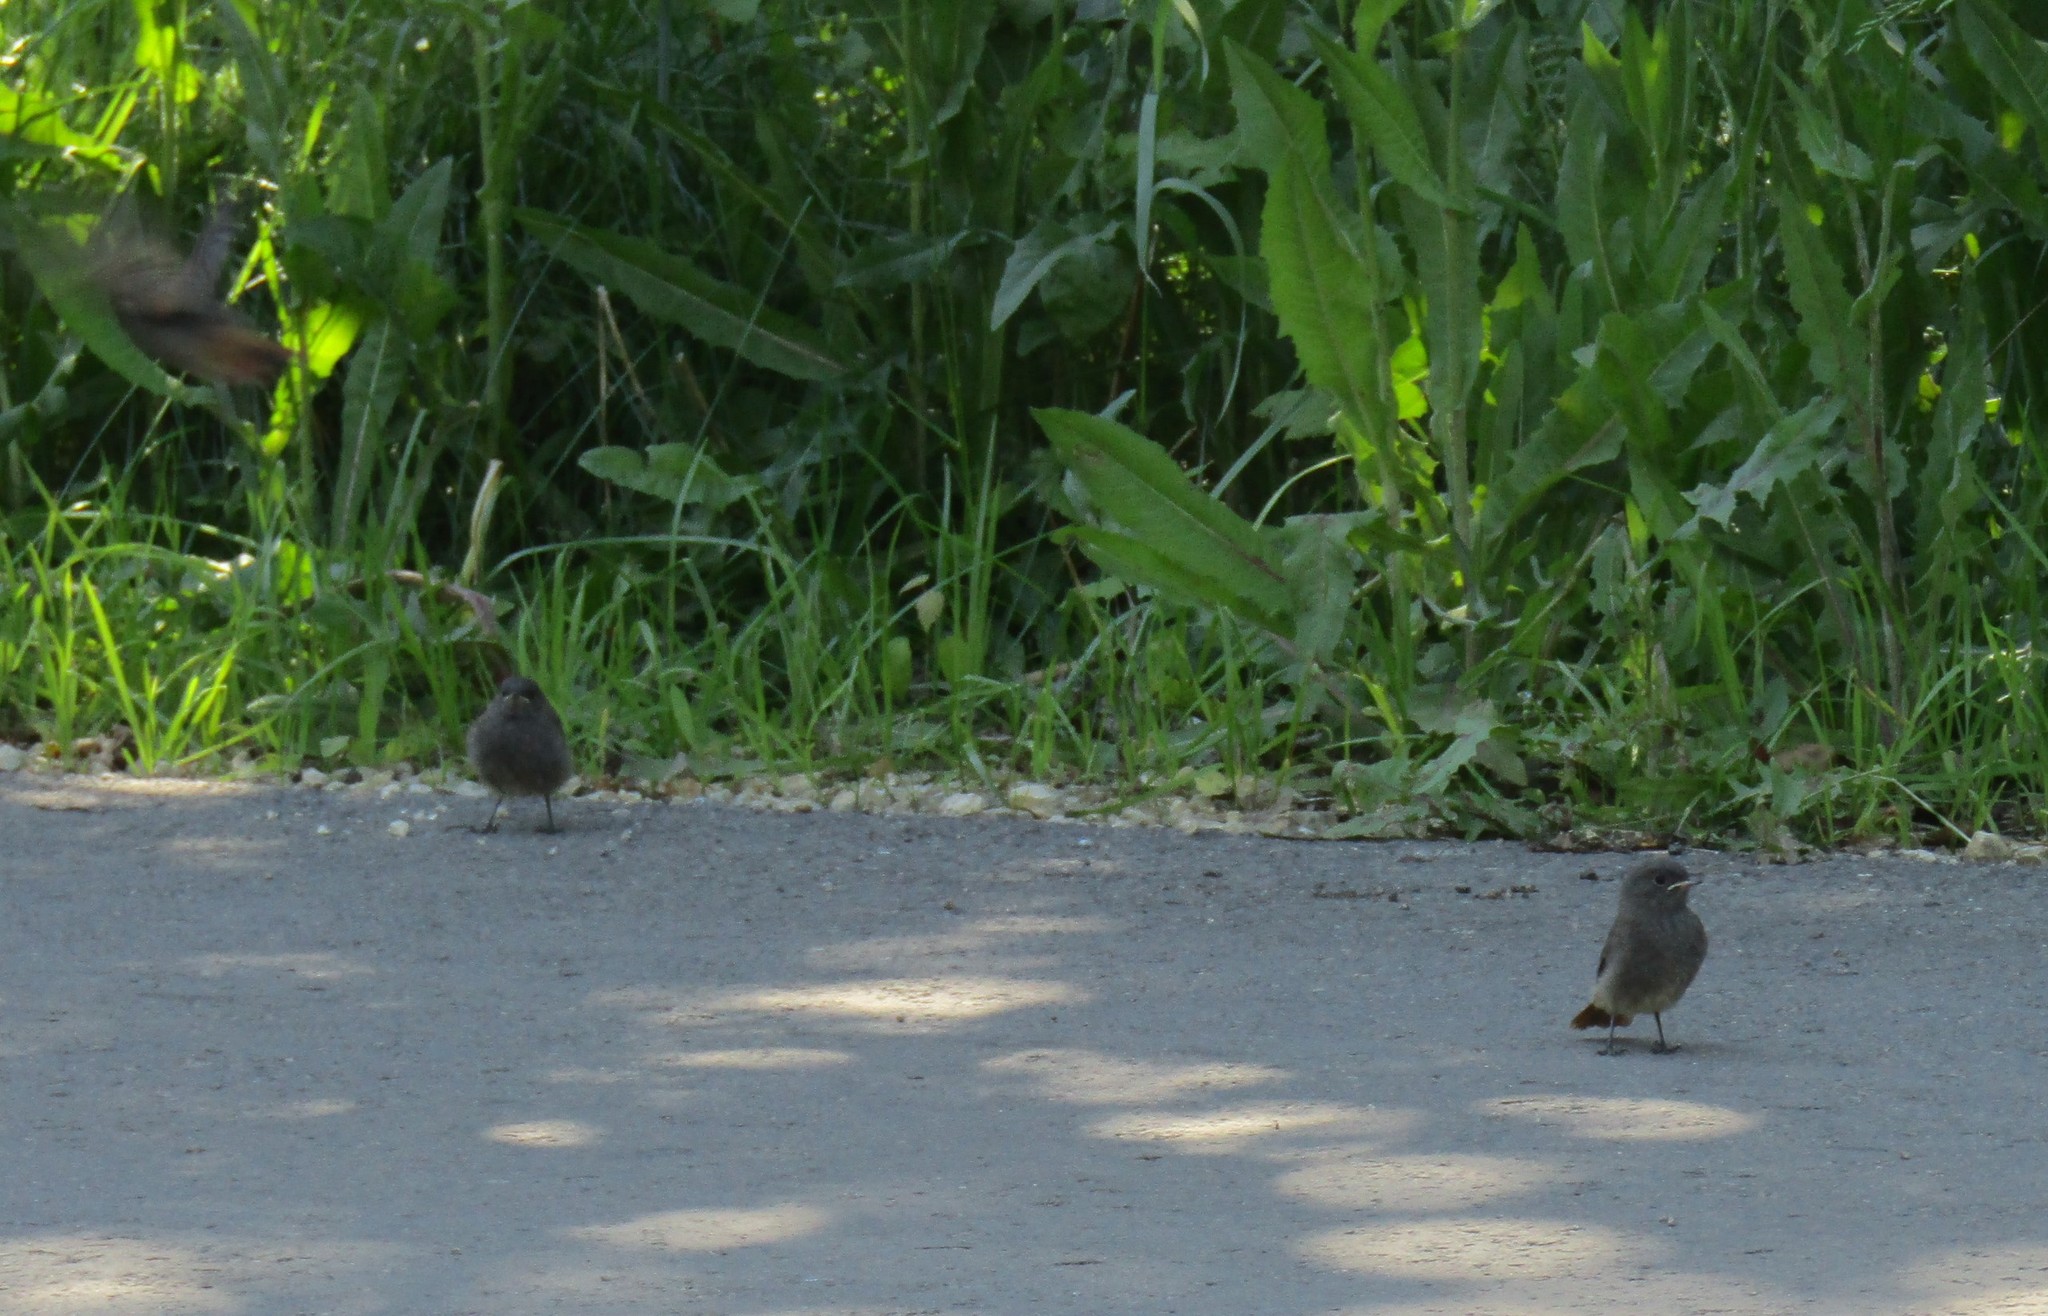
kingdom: Animalia
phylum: Chordata
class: Aves
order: Passeriformes
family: Muscicapidae
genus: Phoenicurus
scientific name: Phoenicurus ochruros
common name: Black redstart
